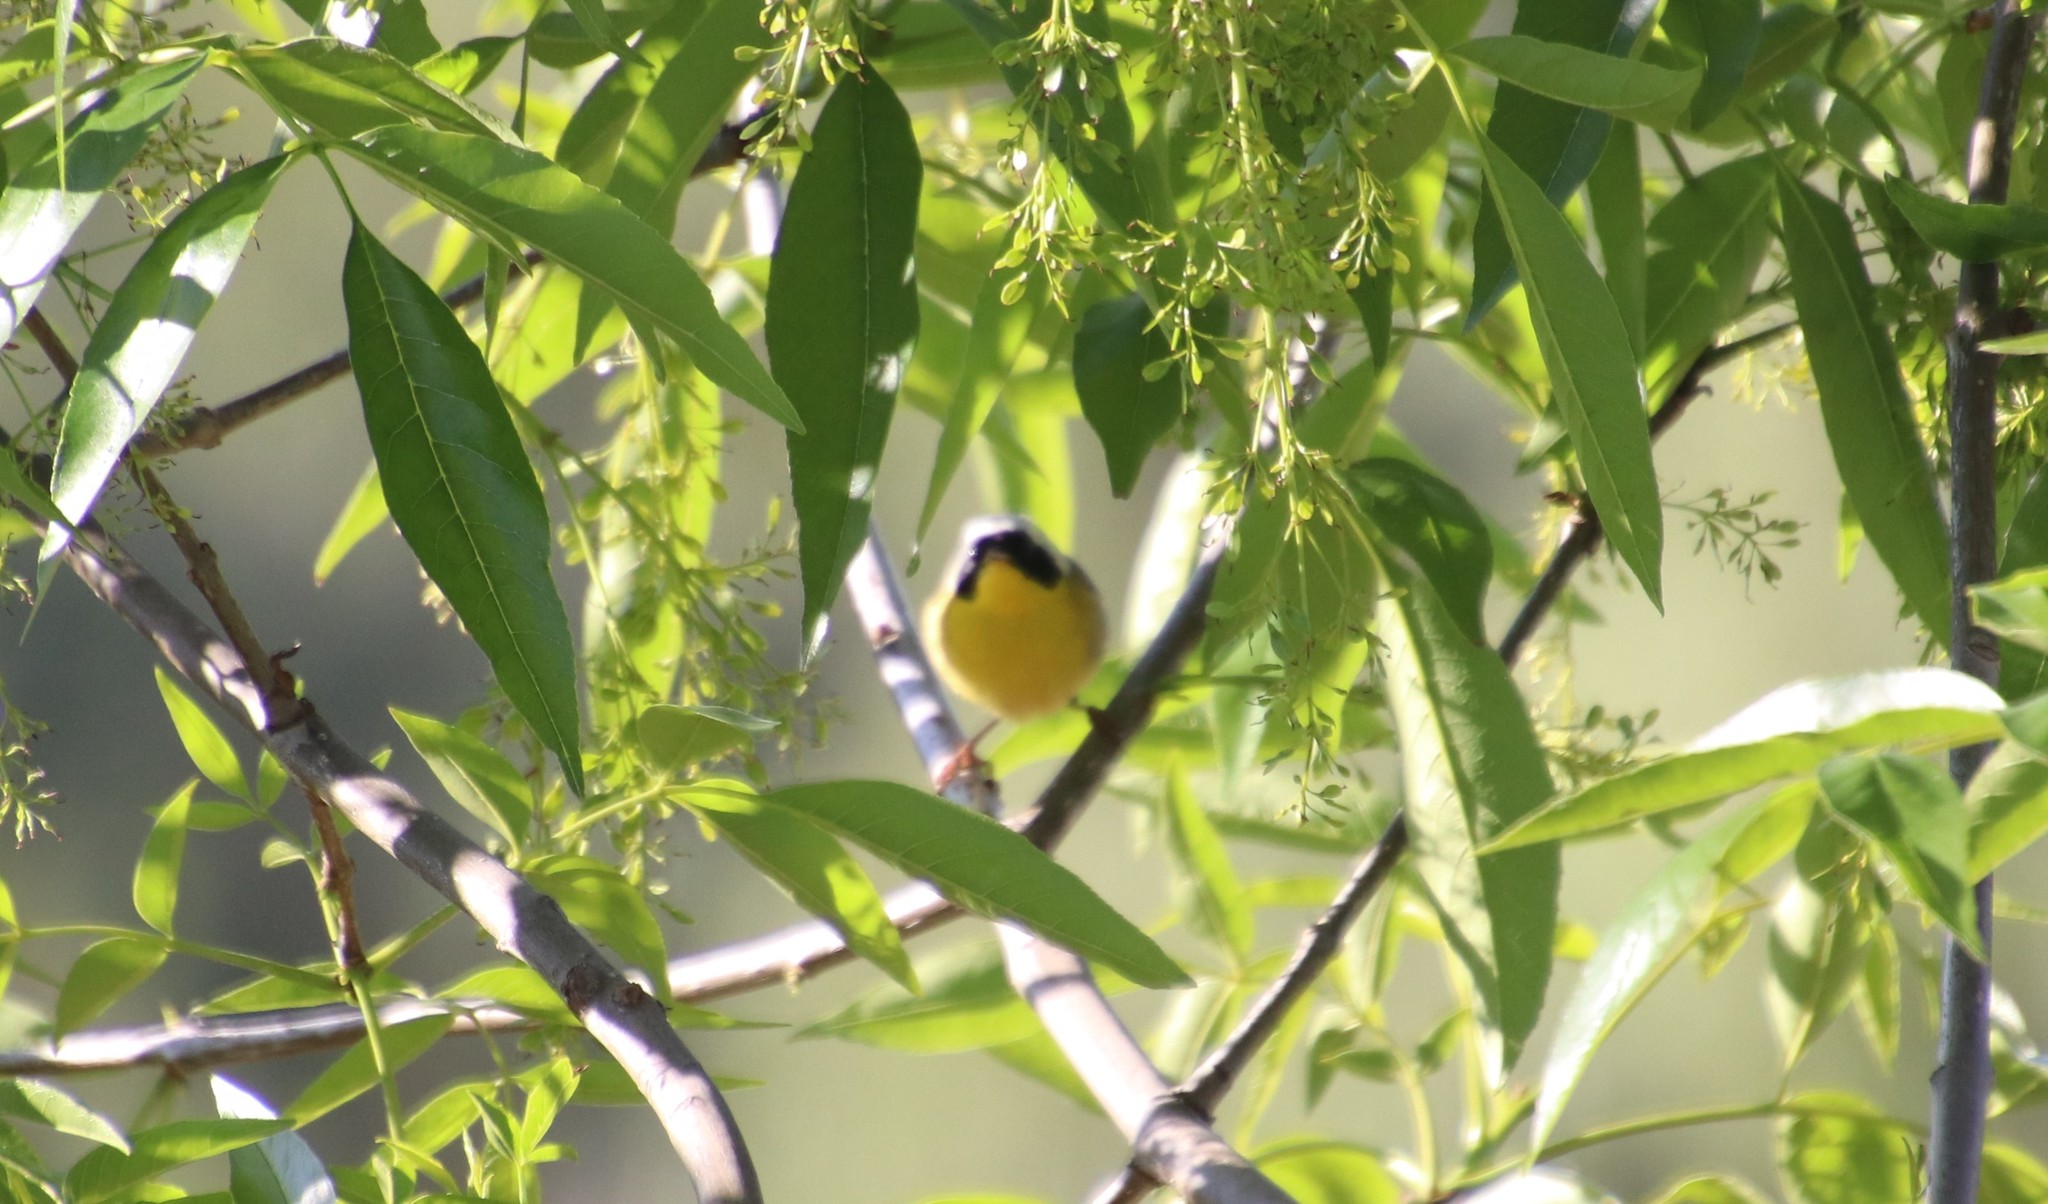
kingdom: Animalia
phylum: Chordata
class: Aves
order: Passeriformes
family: Parulidae
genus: Geothlypis
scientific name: Geothlypis trichas
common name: Common yellowthroat
